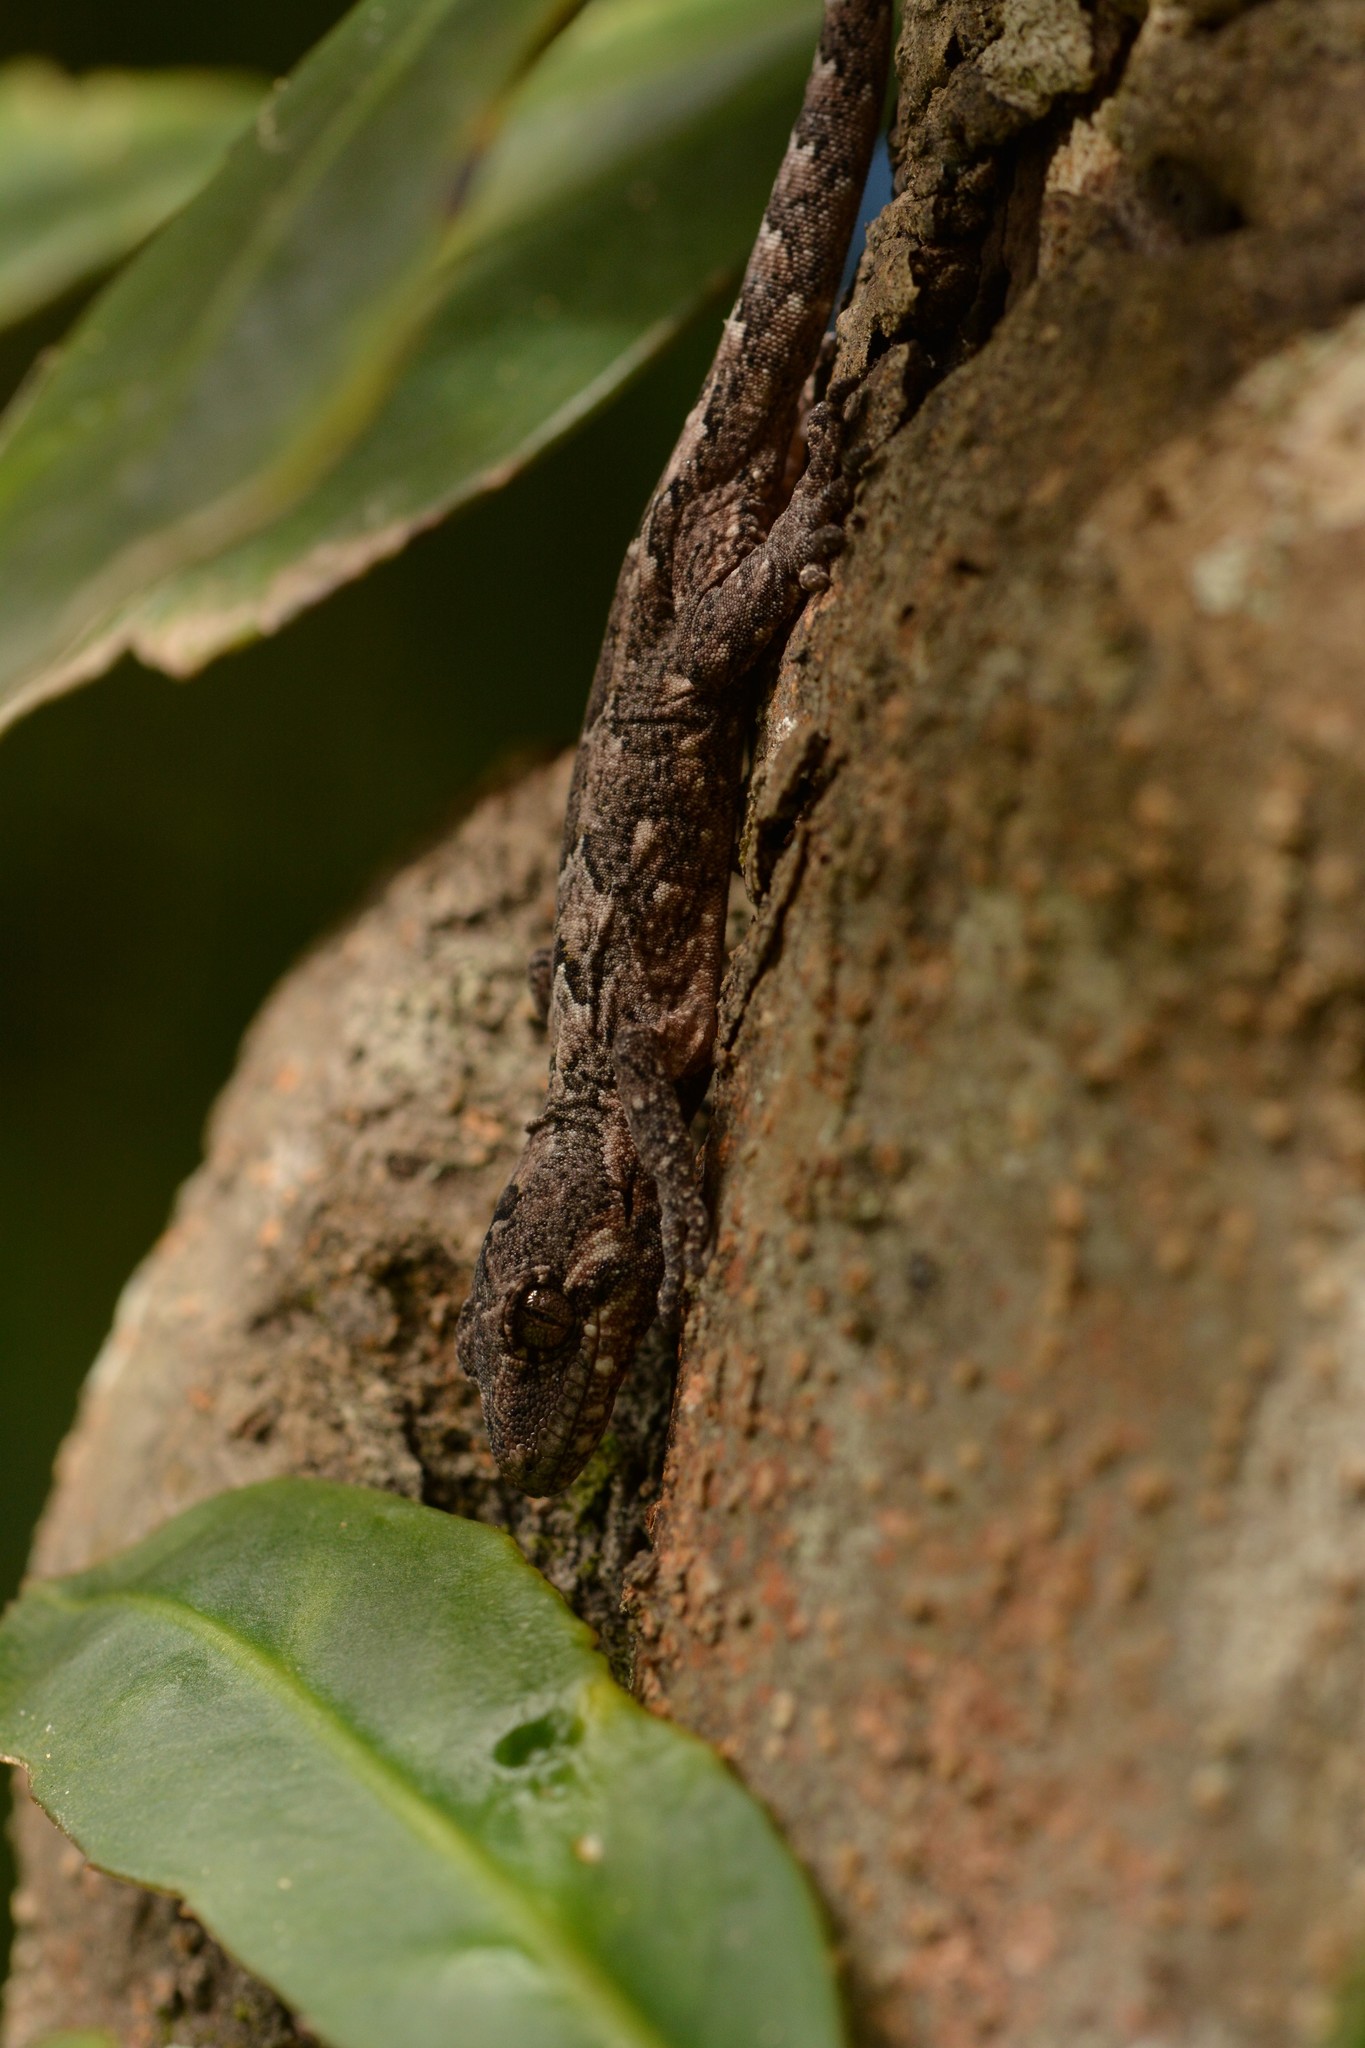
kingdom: Animalia
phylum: Chordata
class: Squamata
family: Diplodactylidae
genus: Mokopirirakau
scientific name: Mokopirirakau
